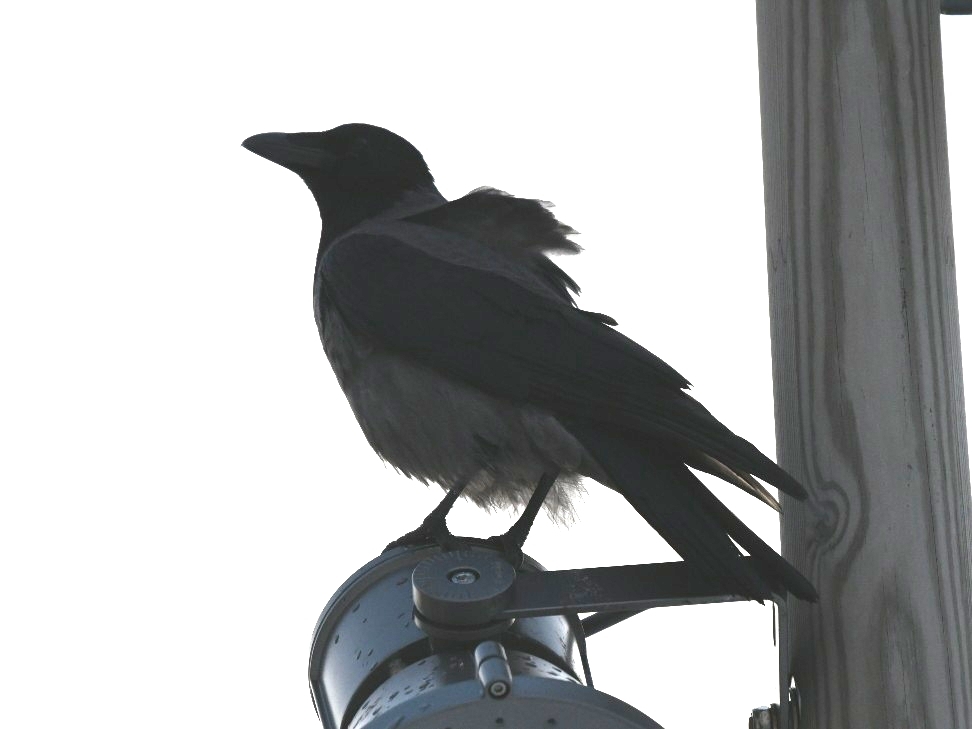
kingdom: Animalia
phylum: Chordata
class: Aves
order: Passeriformes
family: Corvidae
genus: Corvus
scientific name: Corvus cornix
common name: Hooded crow
